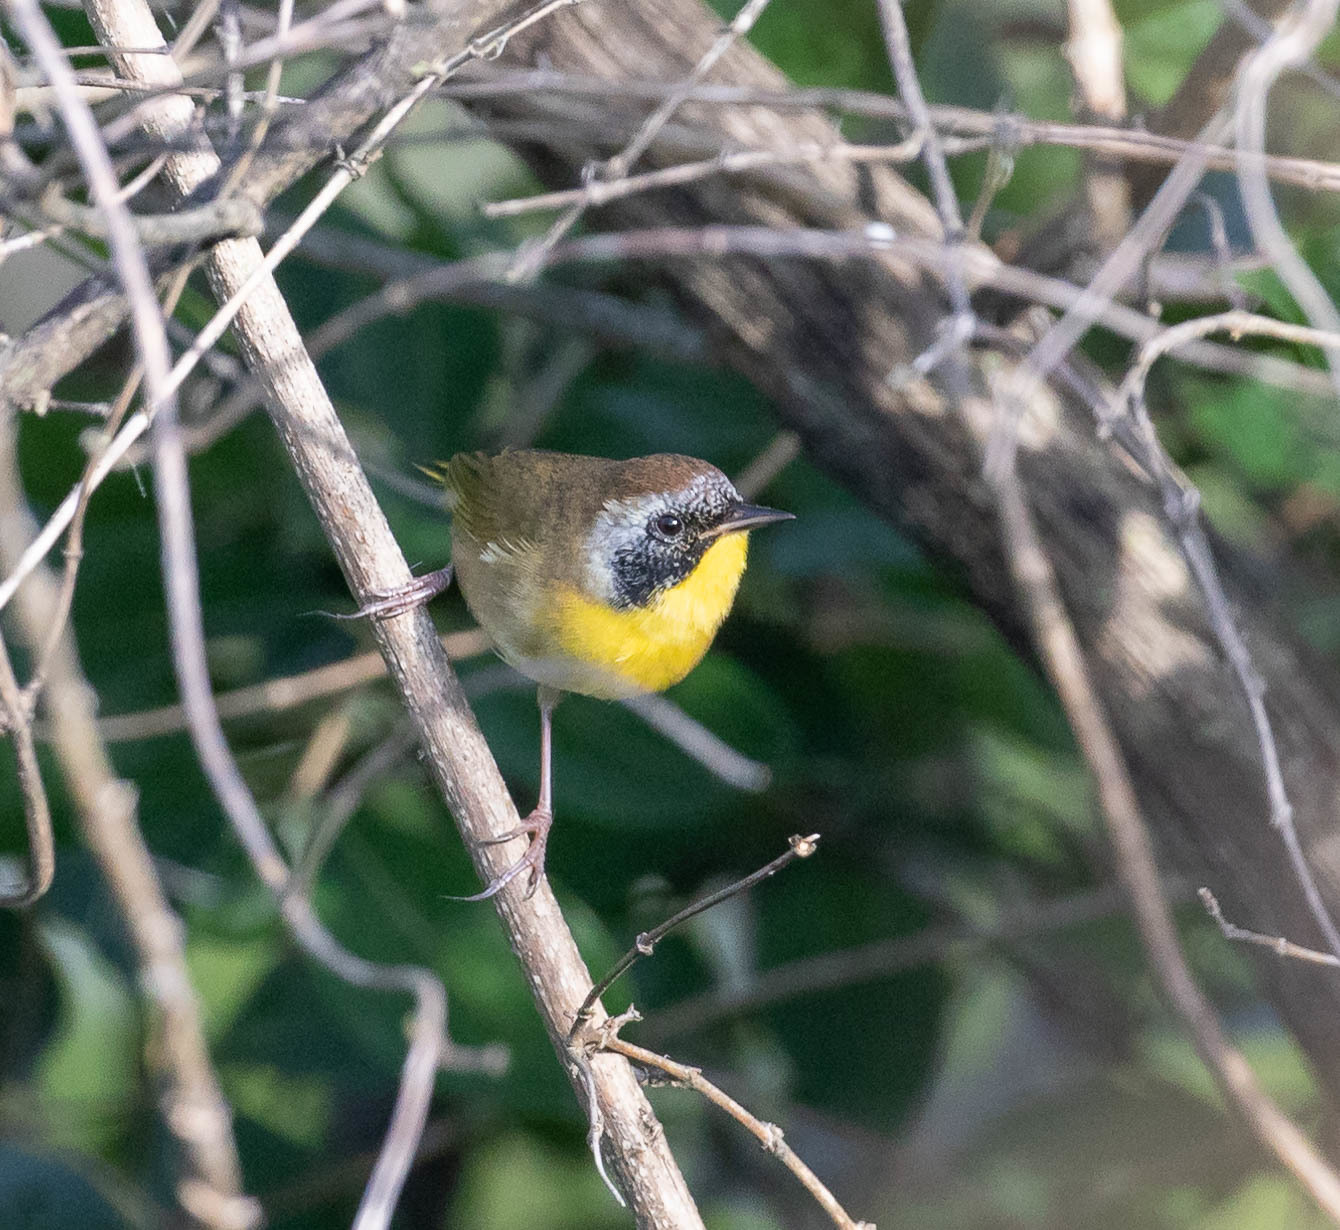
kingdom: Animalia
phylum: Chordata
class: Aves
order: Passeriformes
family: Parulidae
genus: Geothlypis
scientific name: Geothlypis trichas
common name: Common yellowthroat
